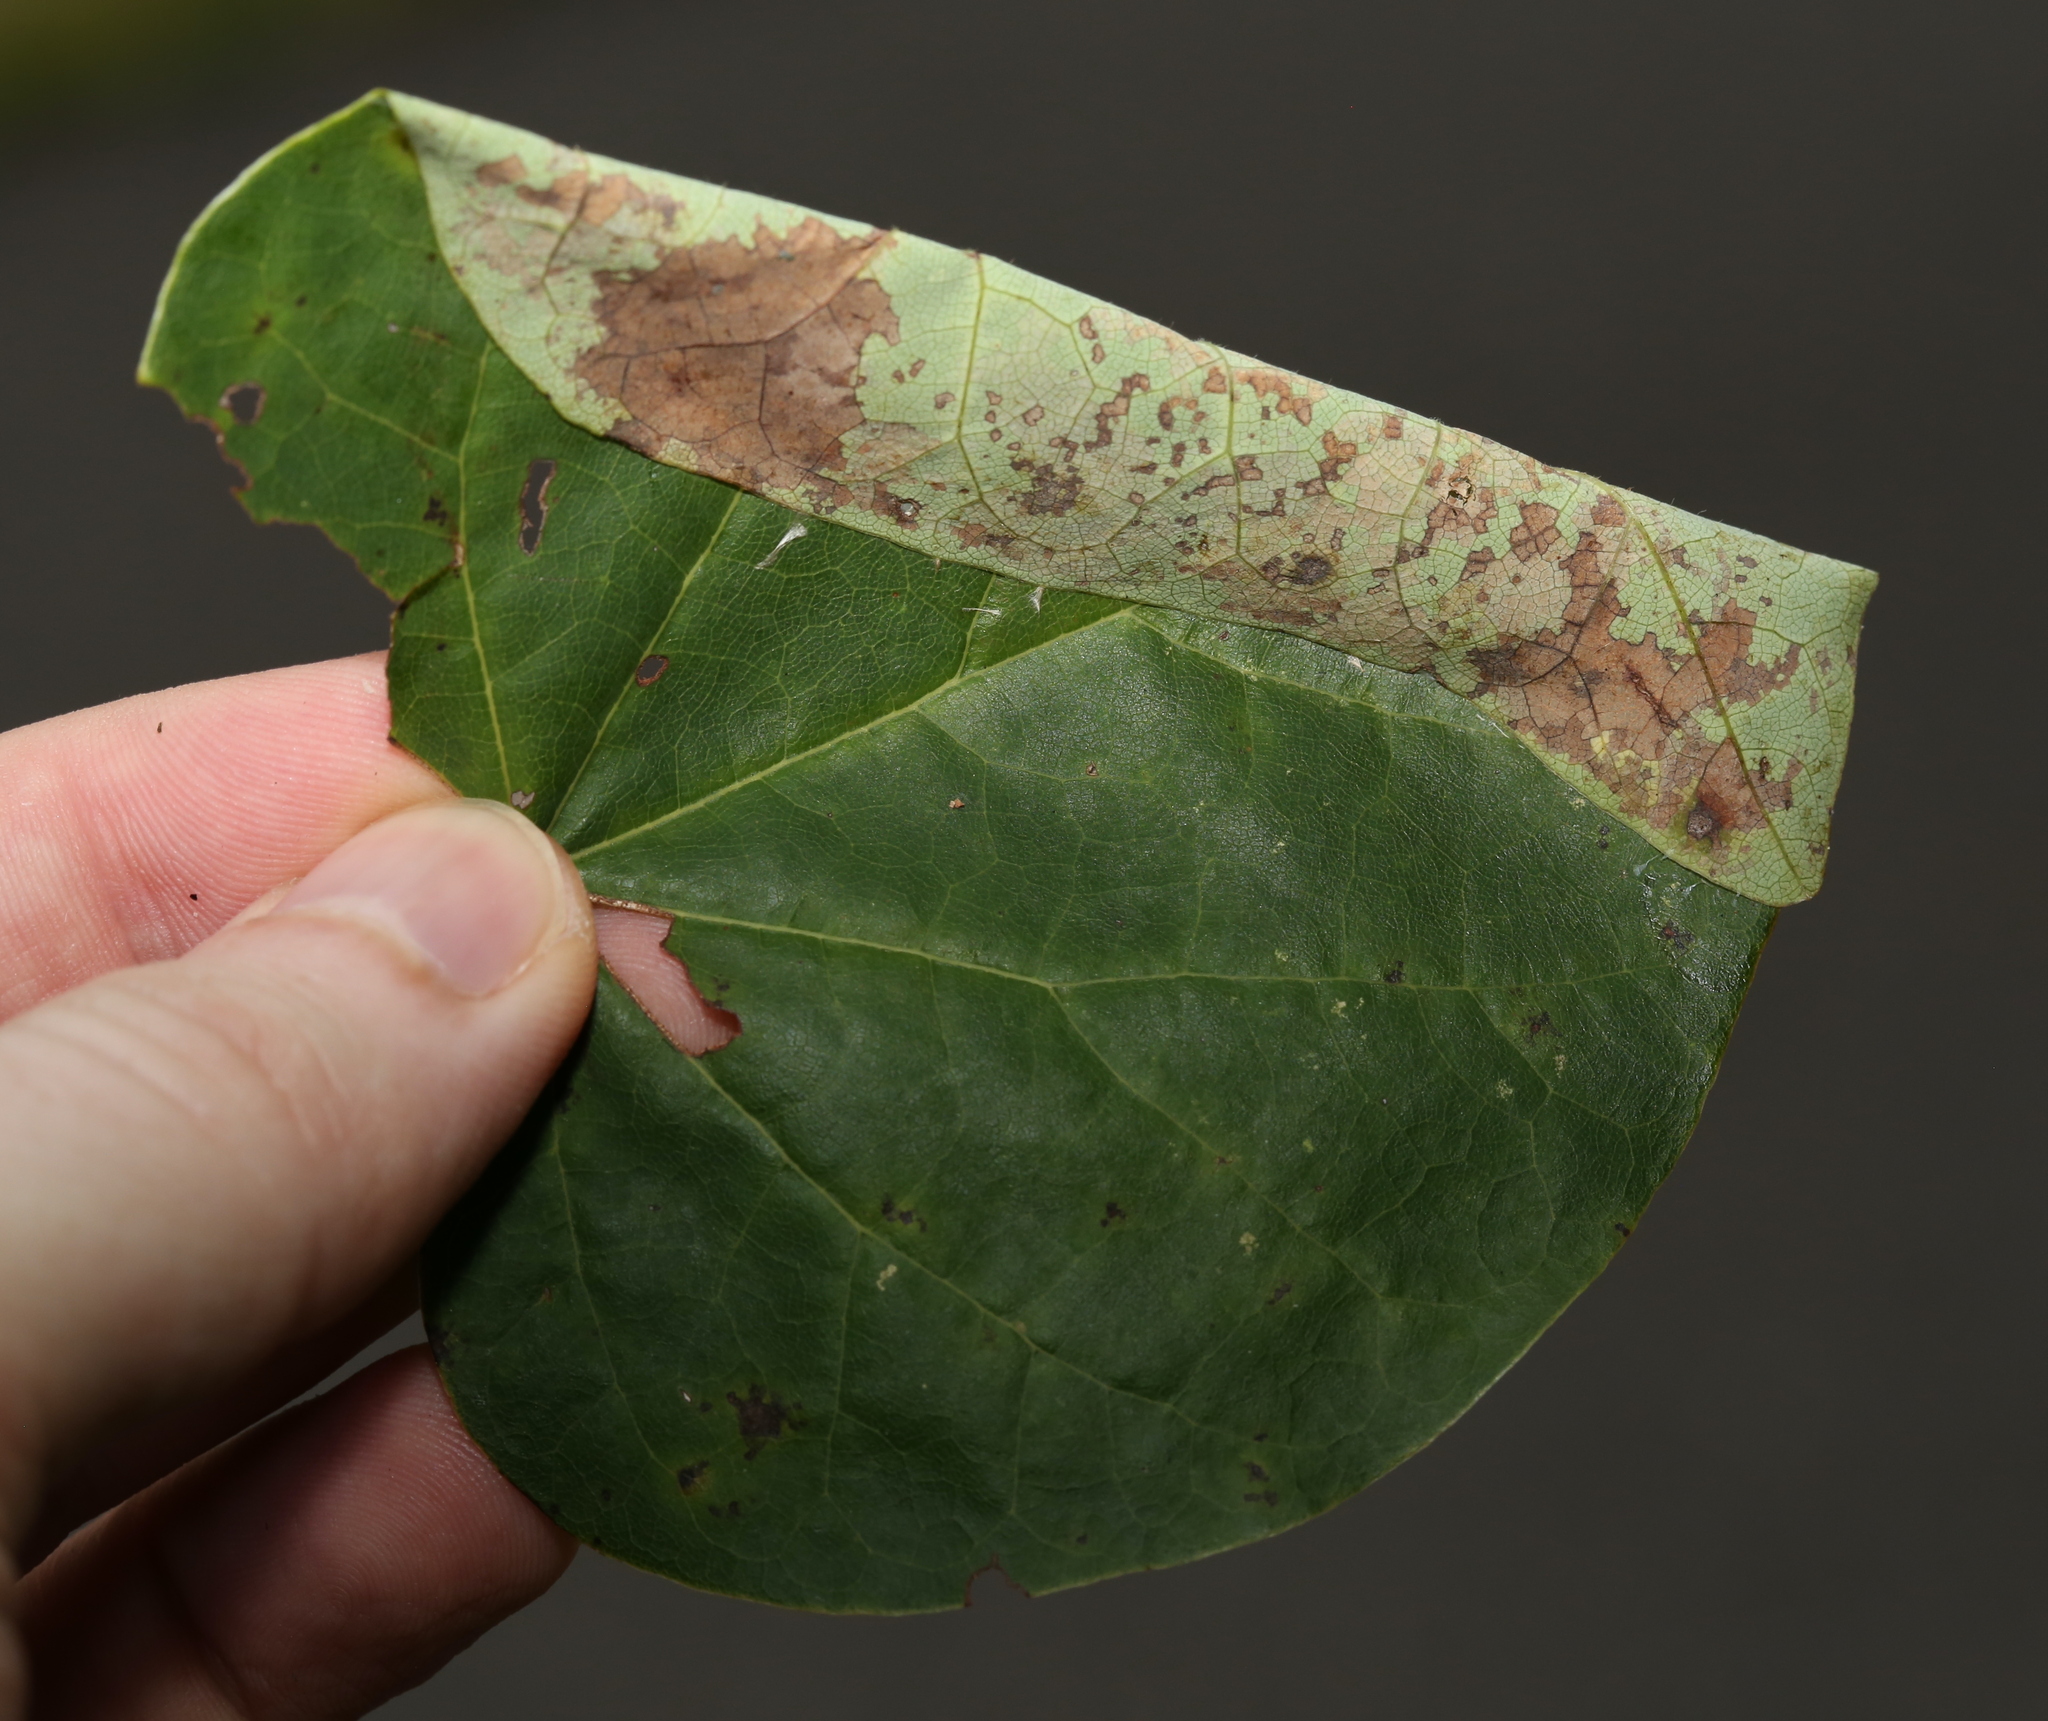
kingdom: Animalia
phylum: Arthropoda
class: Insecta
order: Lepidoptera
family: Gelechiidae
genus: Fascista
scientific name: Fascista cercerisella
